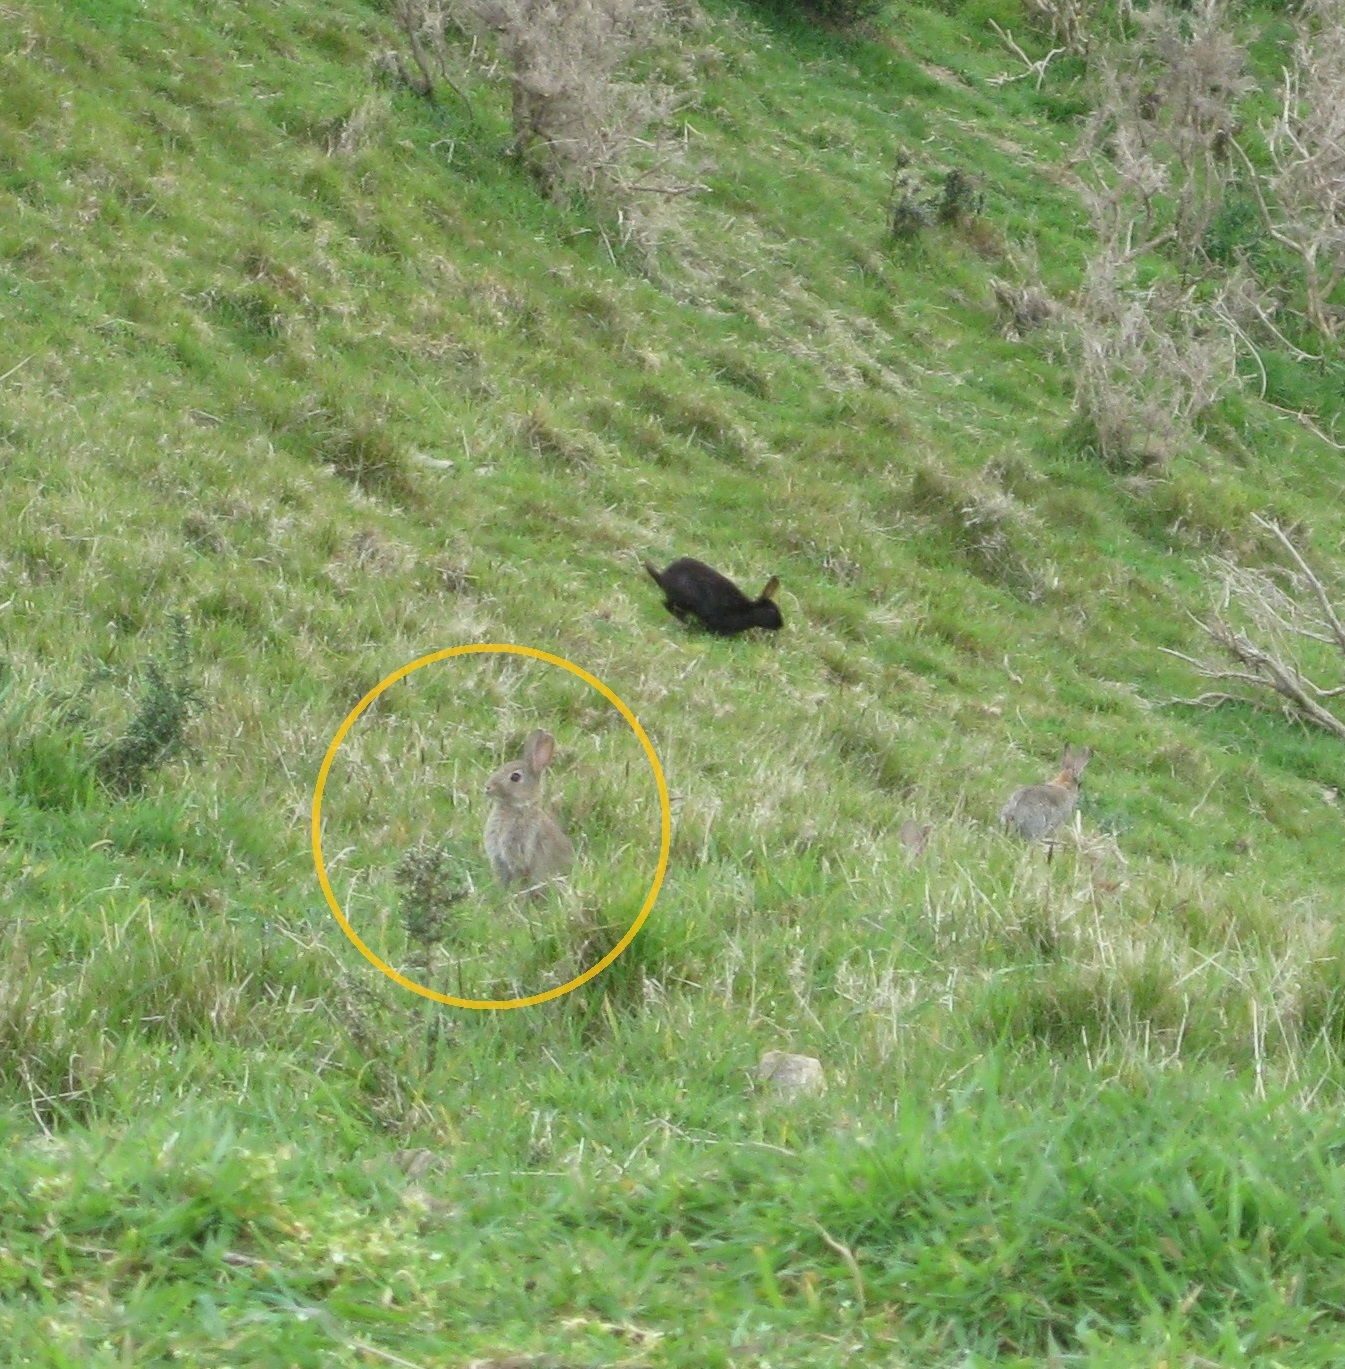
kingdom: Animalia
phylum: Chordata
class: Mammalia
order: Lagomorpha
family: Leporidae
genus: Oryctolagus
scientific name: Oryctolagus cuniculus
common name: European rabbit
